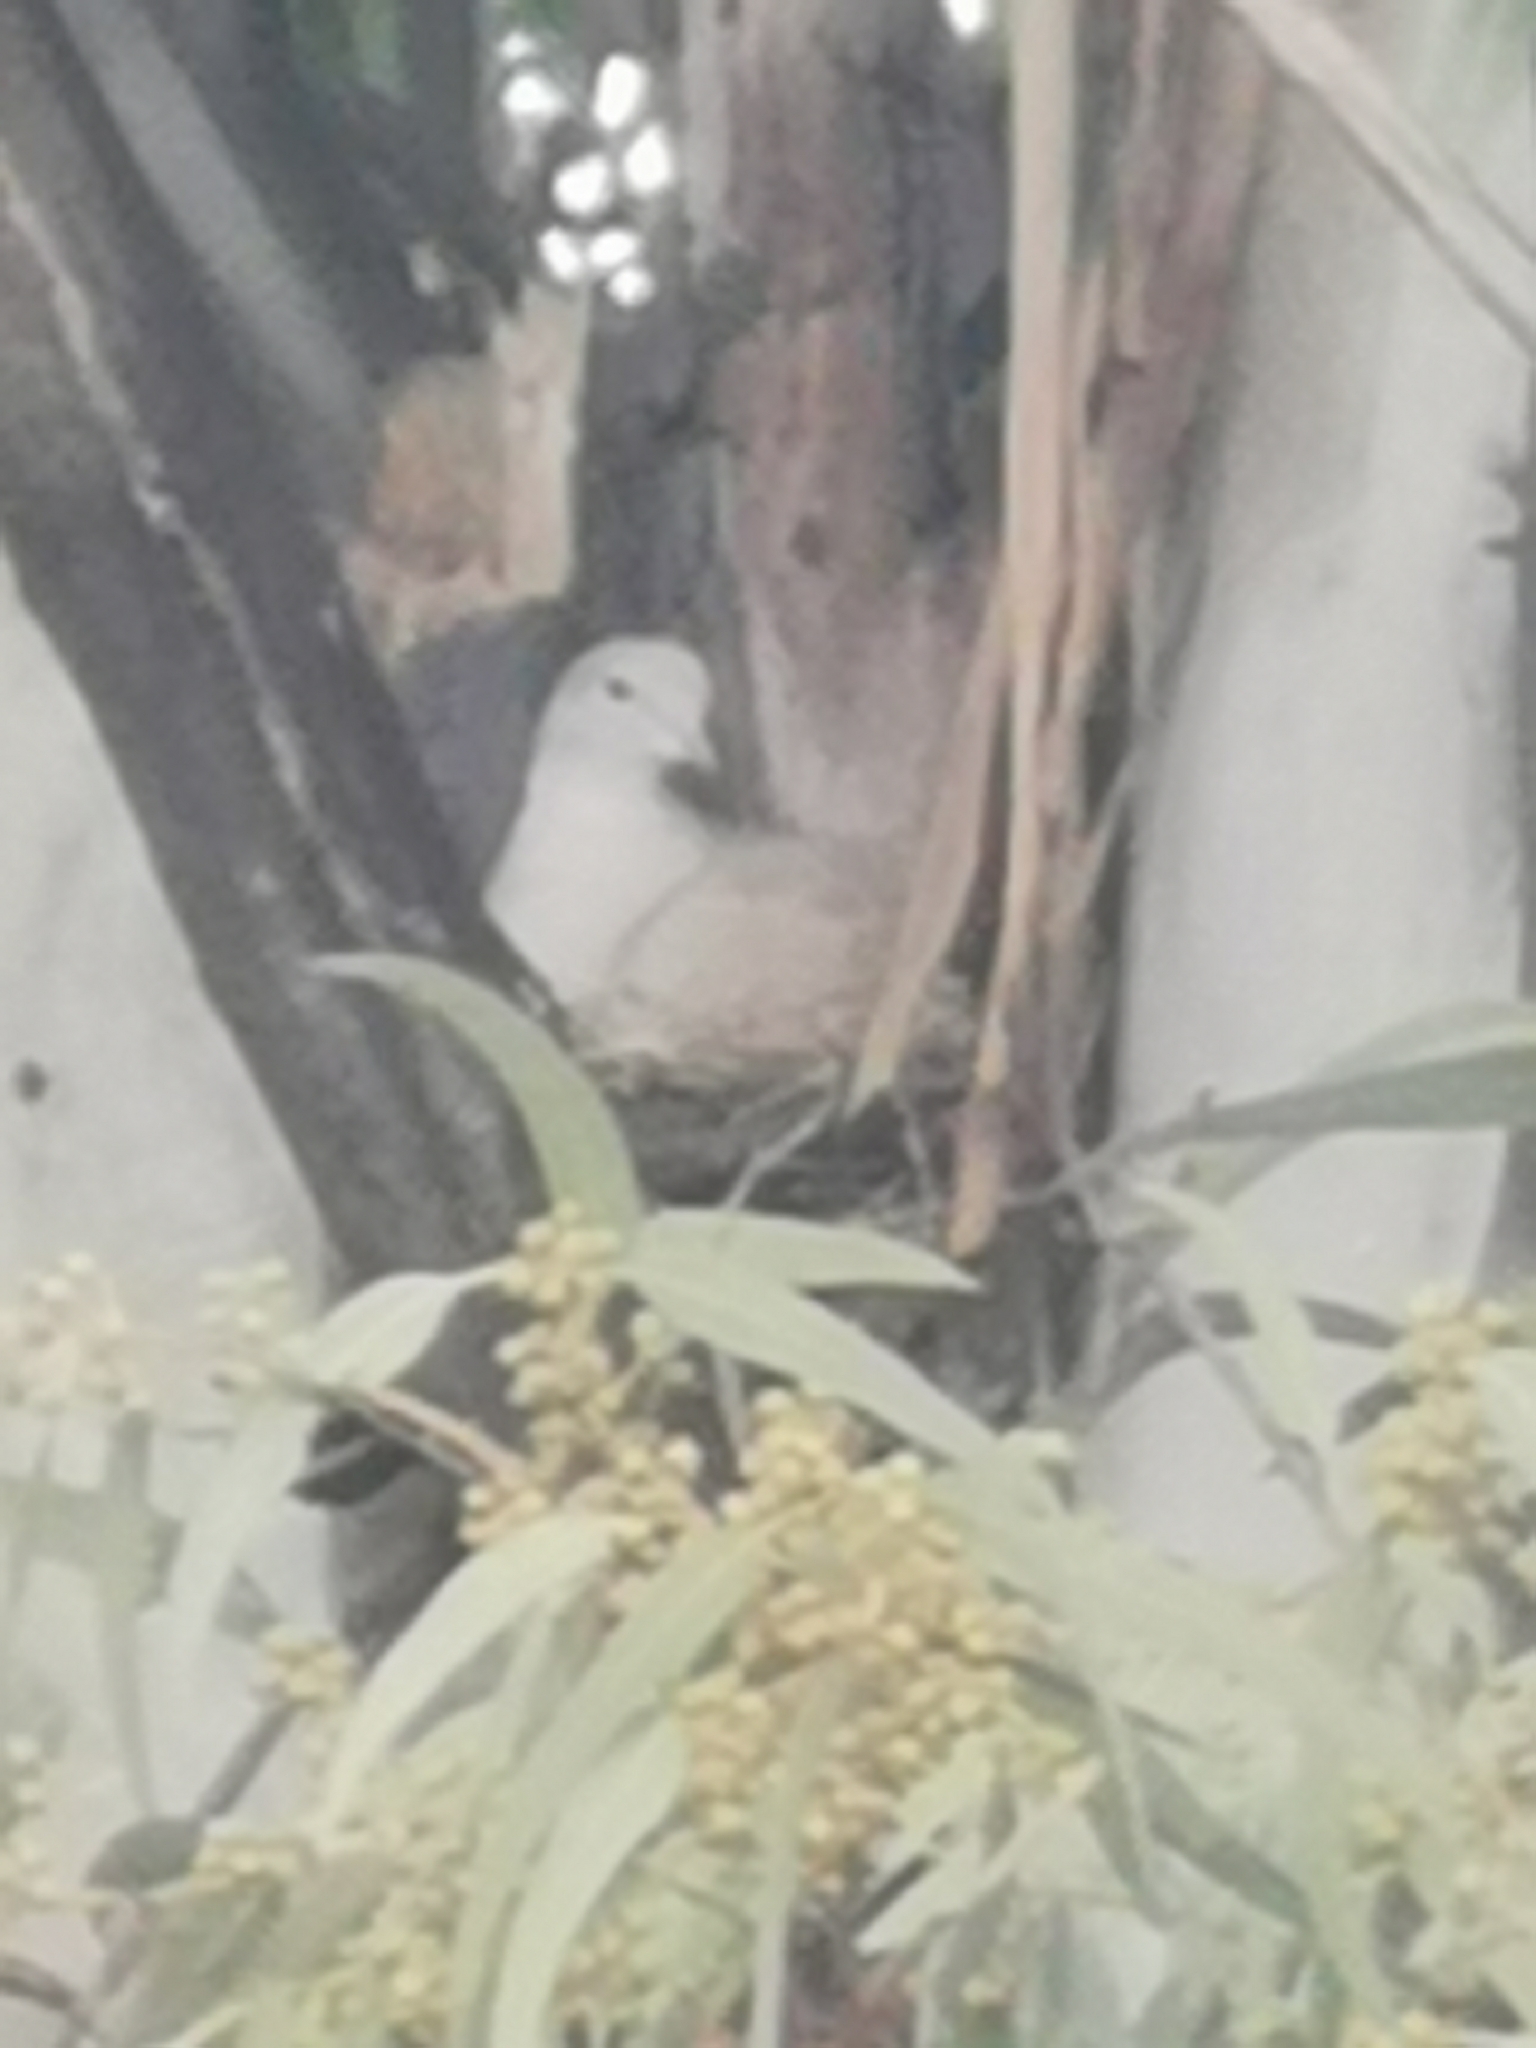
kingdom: Animalia
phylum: Chordata
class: Aves
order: Columbiformes
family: Columbidae
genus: Streptopelia
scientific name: Streptopelia decaocto
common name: Eurasian collared dove
